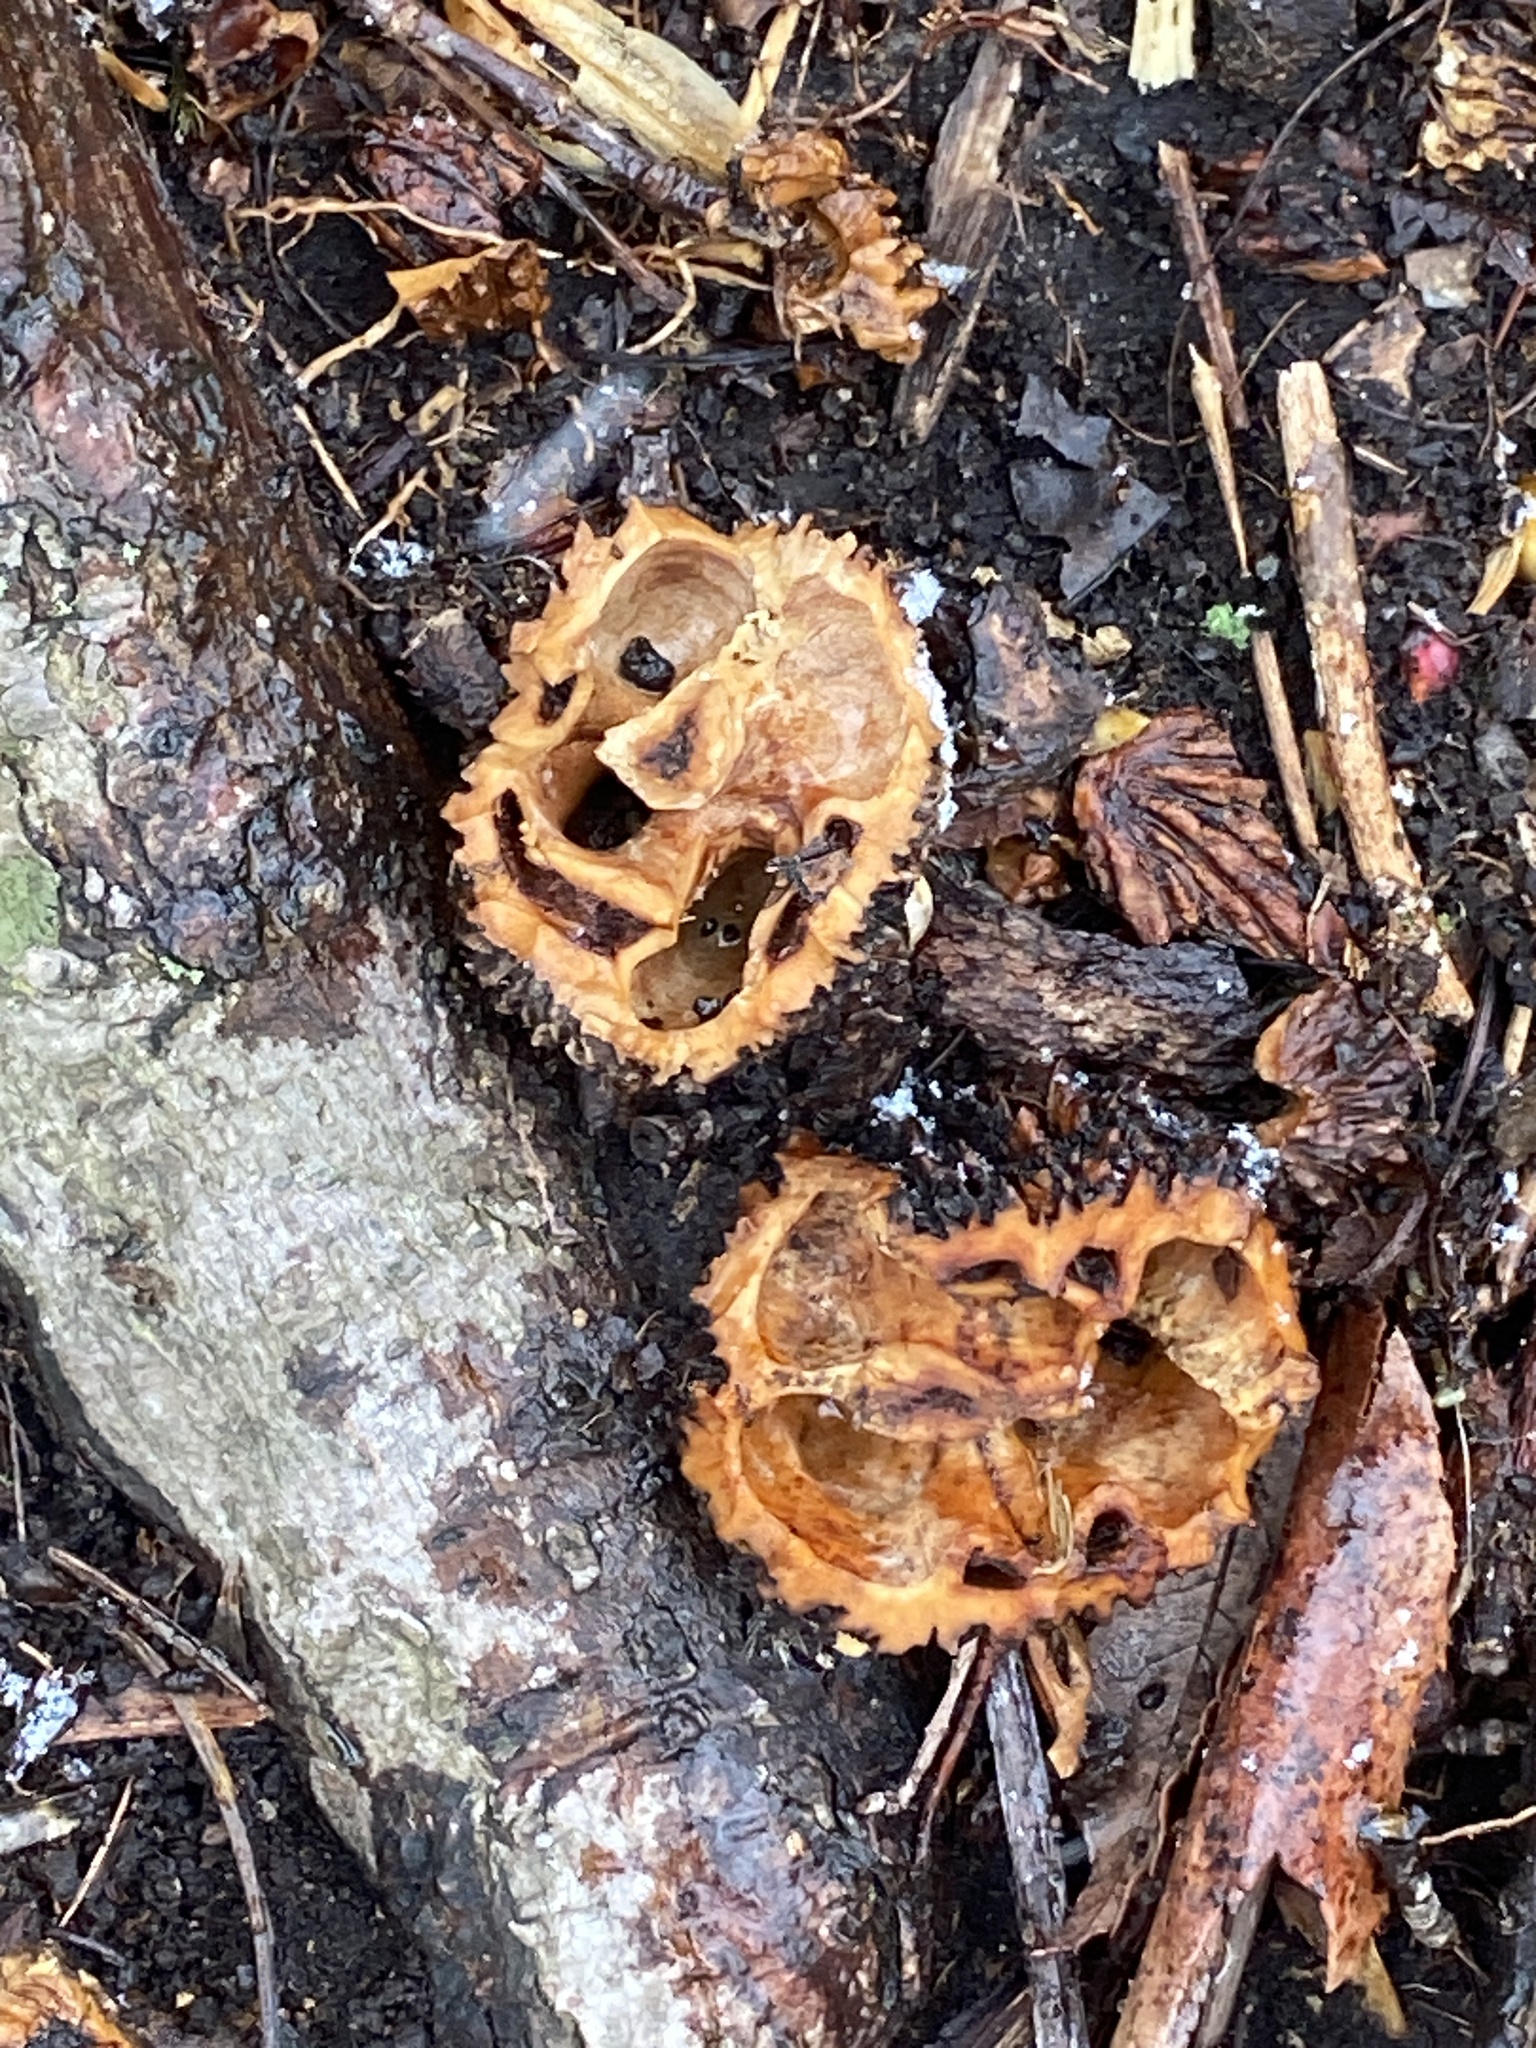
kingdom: Plantae
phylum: Tracheophyta
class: Magnoliopsida
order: Fagales
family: Juglandaceae
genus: Juglans
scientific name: Juglans nigra
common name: Black walnut
